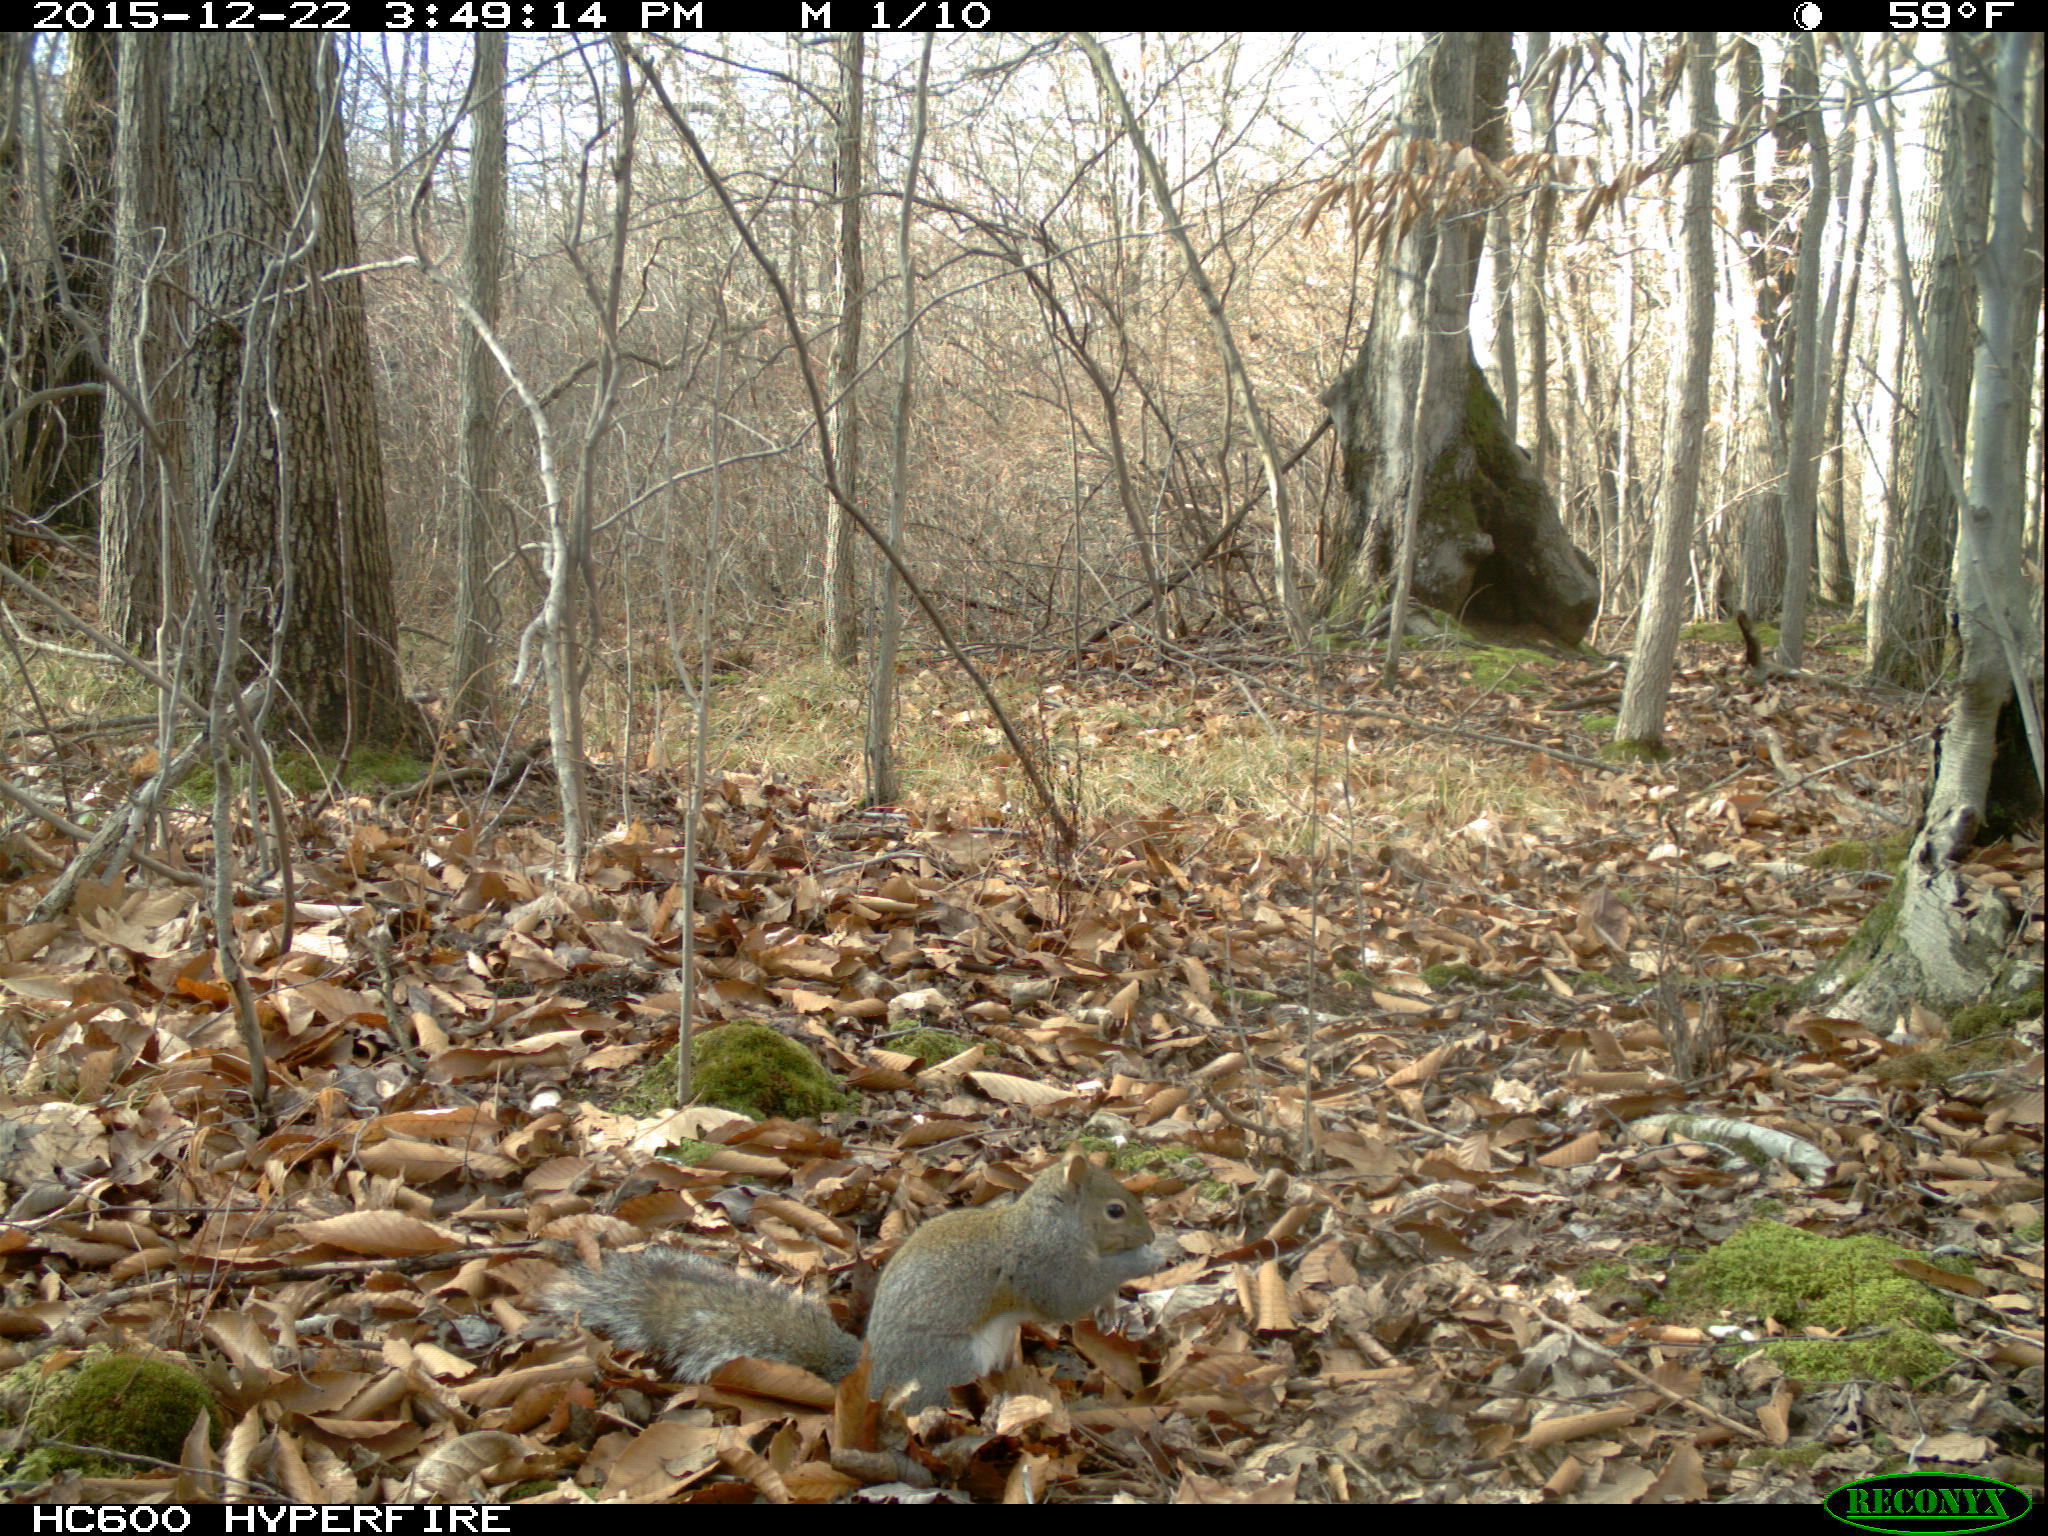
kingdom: Animalia
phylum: Chordata
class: Mammalia
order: Rodentia
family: Sciuridae
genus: Sciurus
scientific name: Sciurus carolinensis
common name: Eastern gray squirrel
